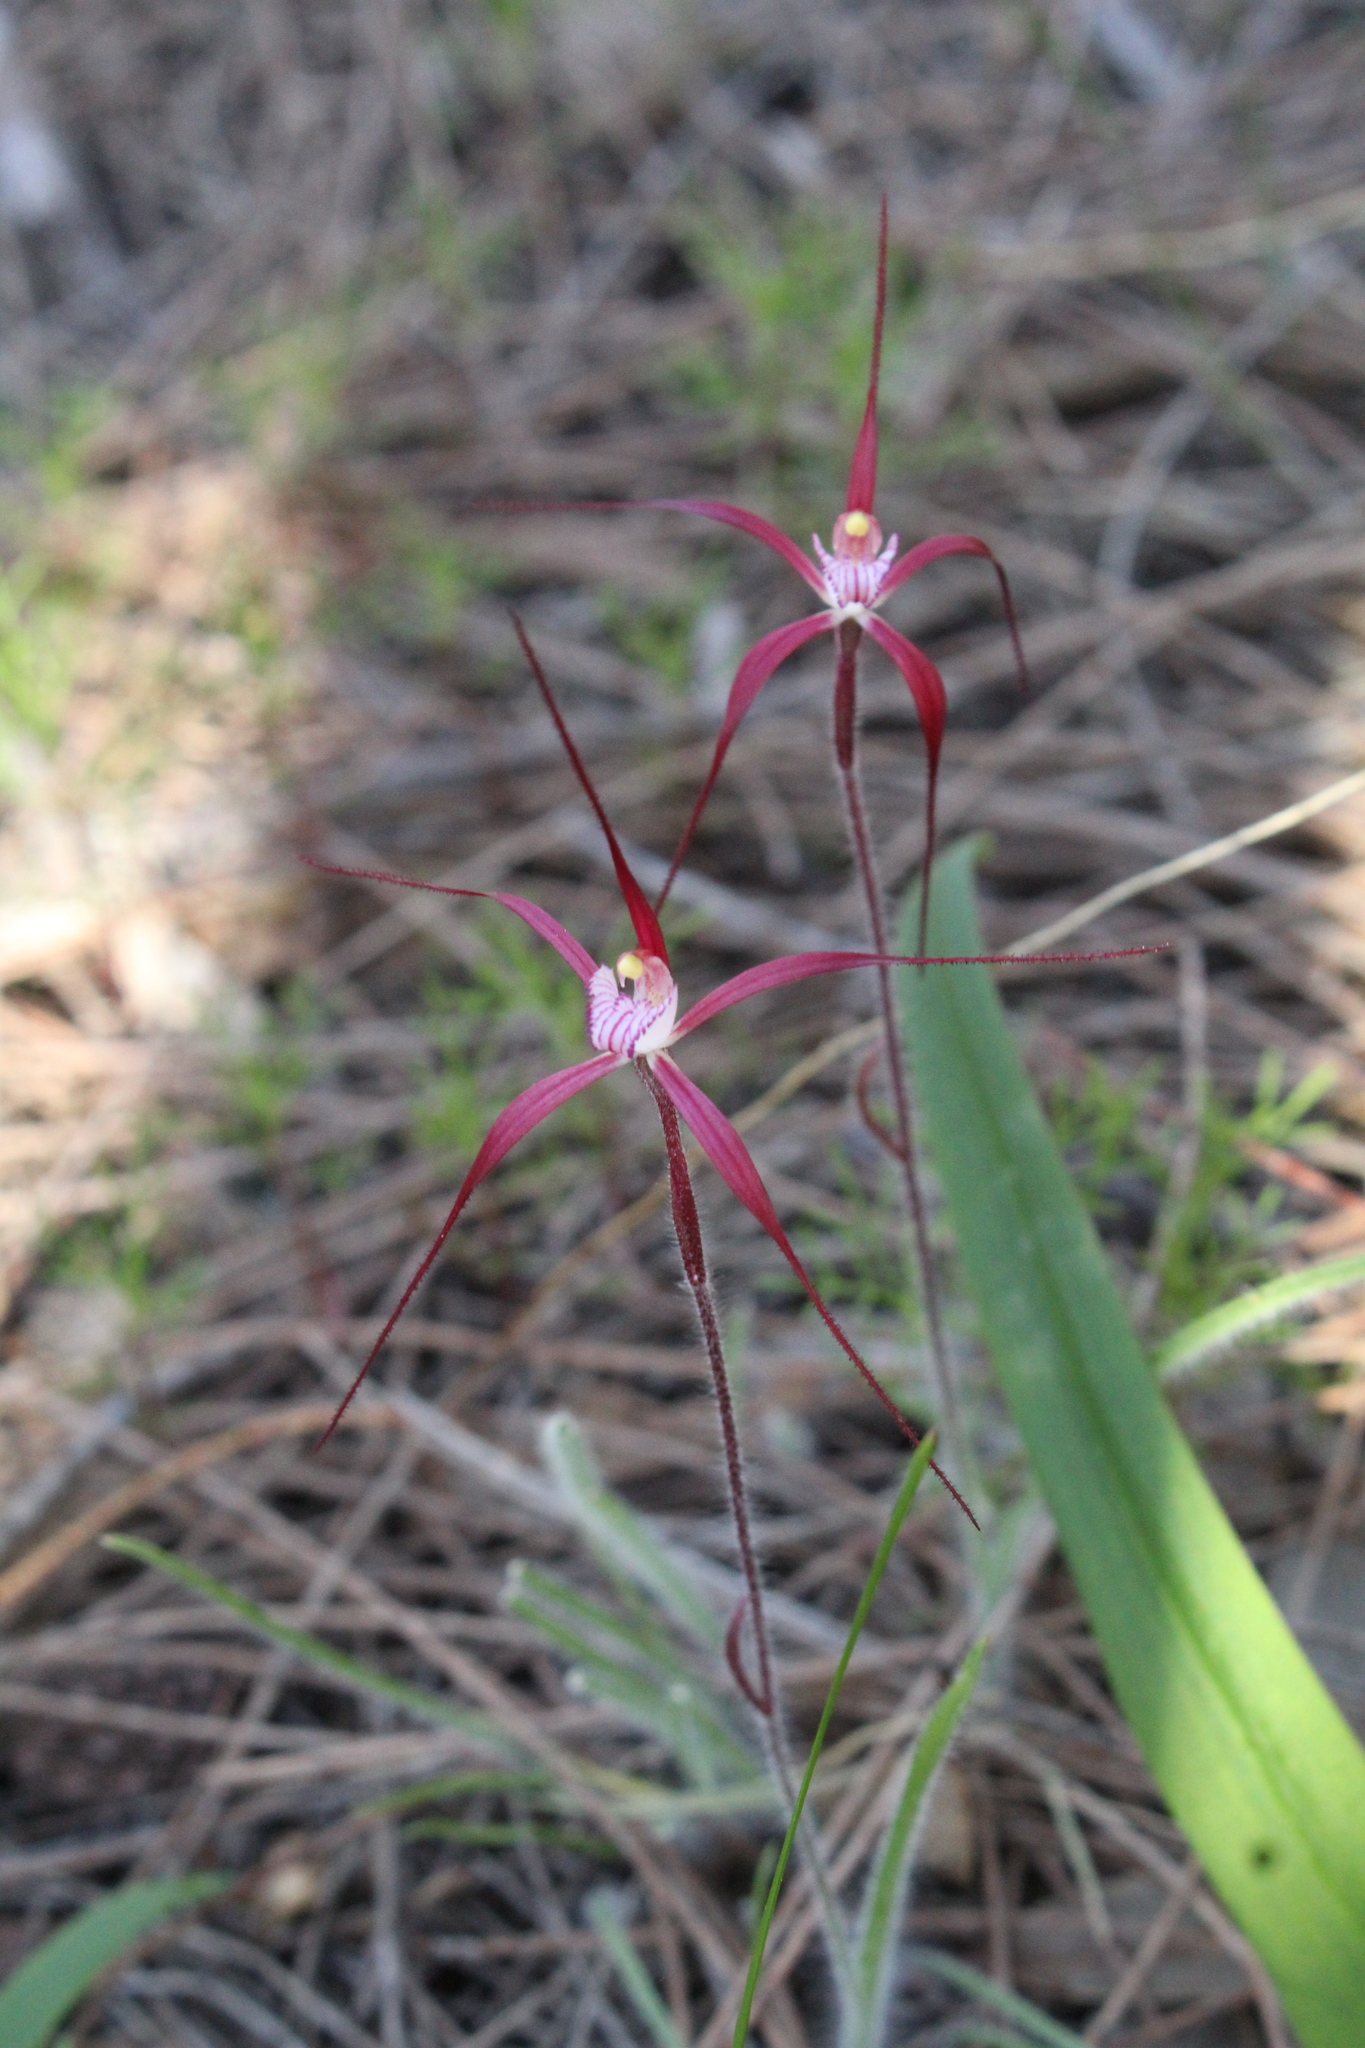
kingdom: Plantae
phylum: Tracheophyta
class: Liliopsida
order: Asparagales
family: Orchidaceae
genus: Caladenia
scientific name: Caladenia footeana
